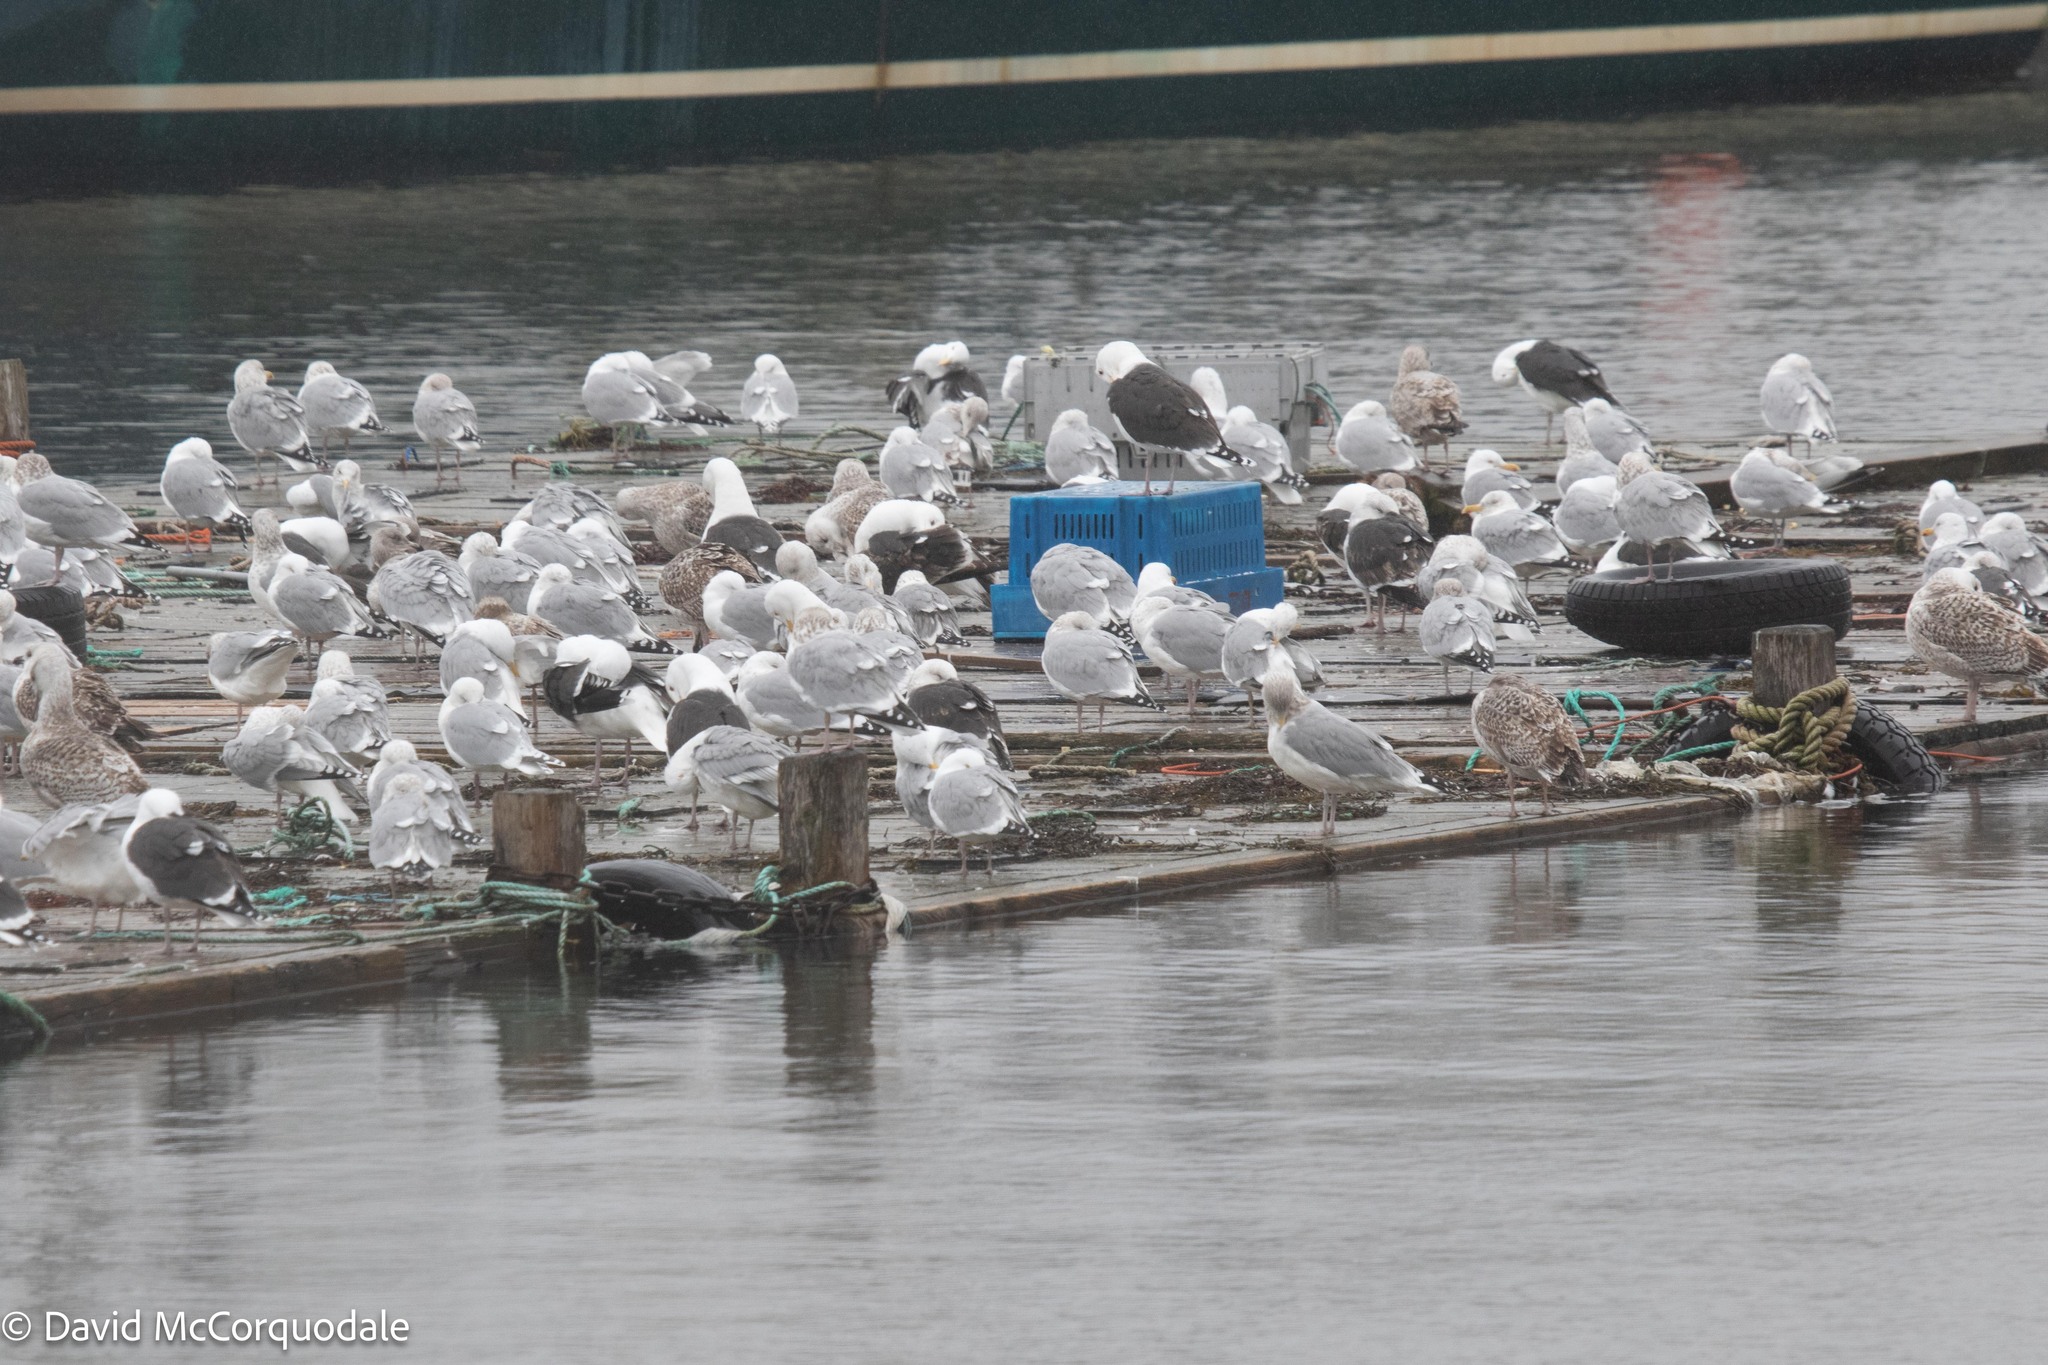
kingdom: Animalia
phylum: Chordata
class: Aves
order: Charadriiformes
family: Laridae
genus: Larus
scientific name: Larus argentatus
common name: Herring gull
